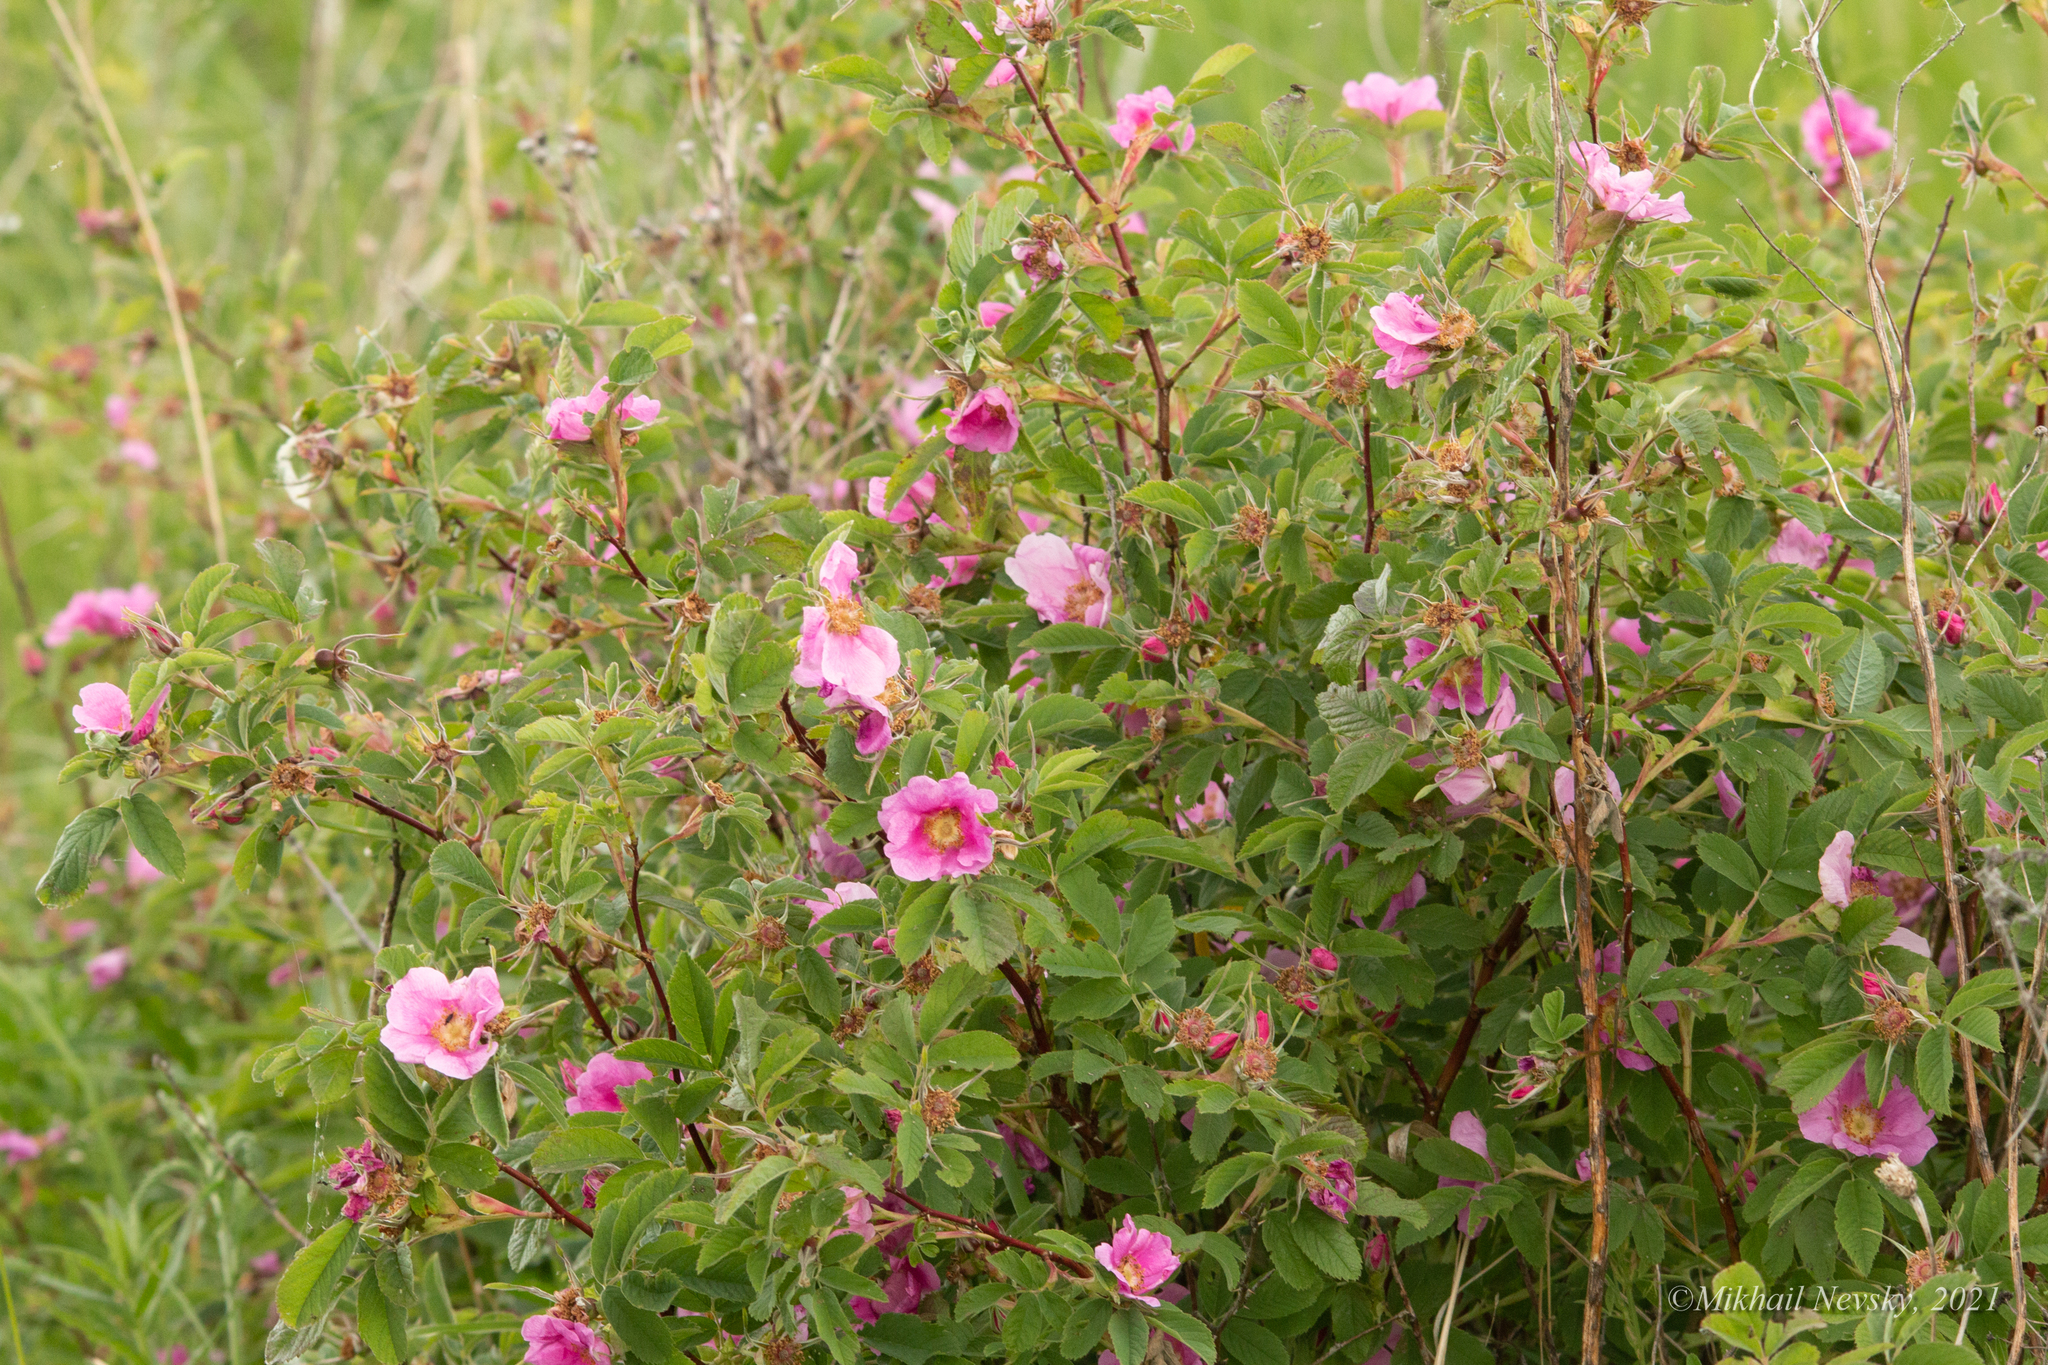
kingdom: Plantae
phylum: Tracheophyta
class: Magnoliopsida
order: Rosales
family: Rosaceae
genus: Rosa
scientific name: Rosa majalis
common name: Cinnamon rose
